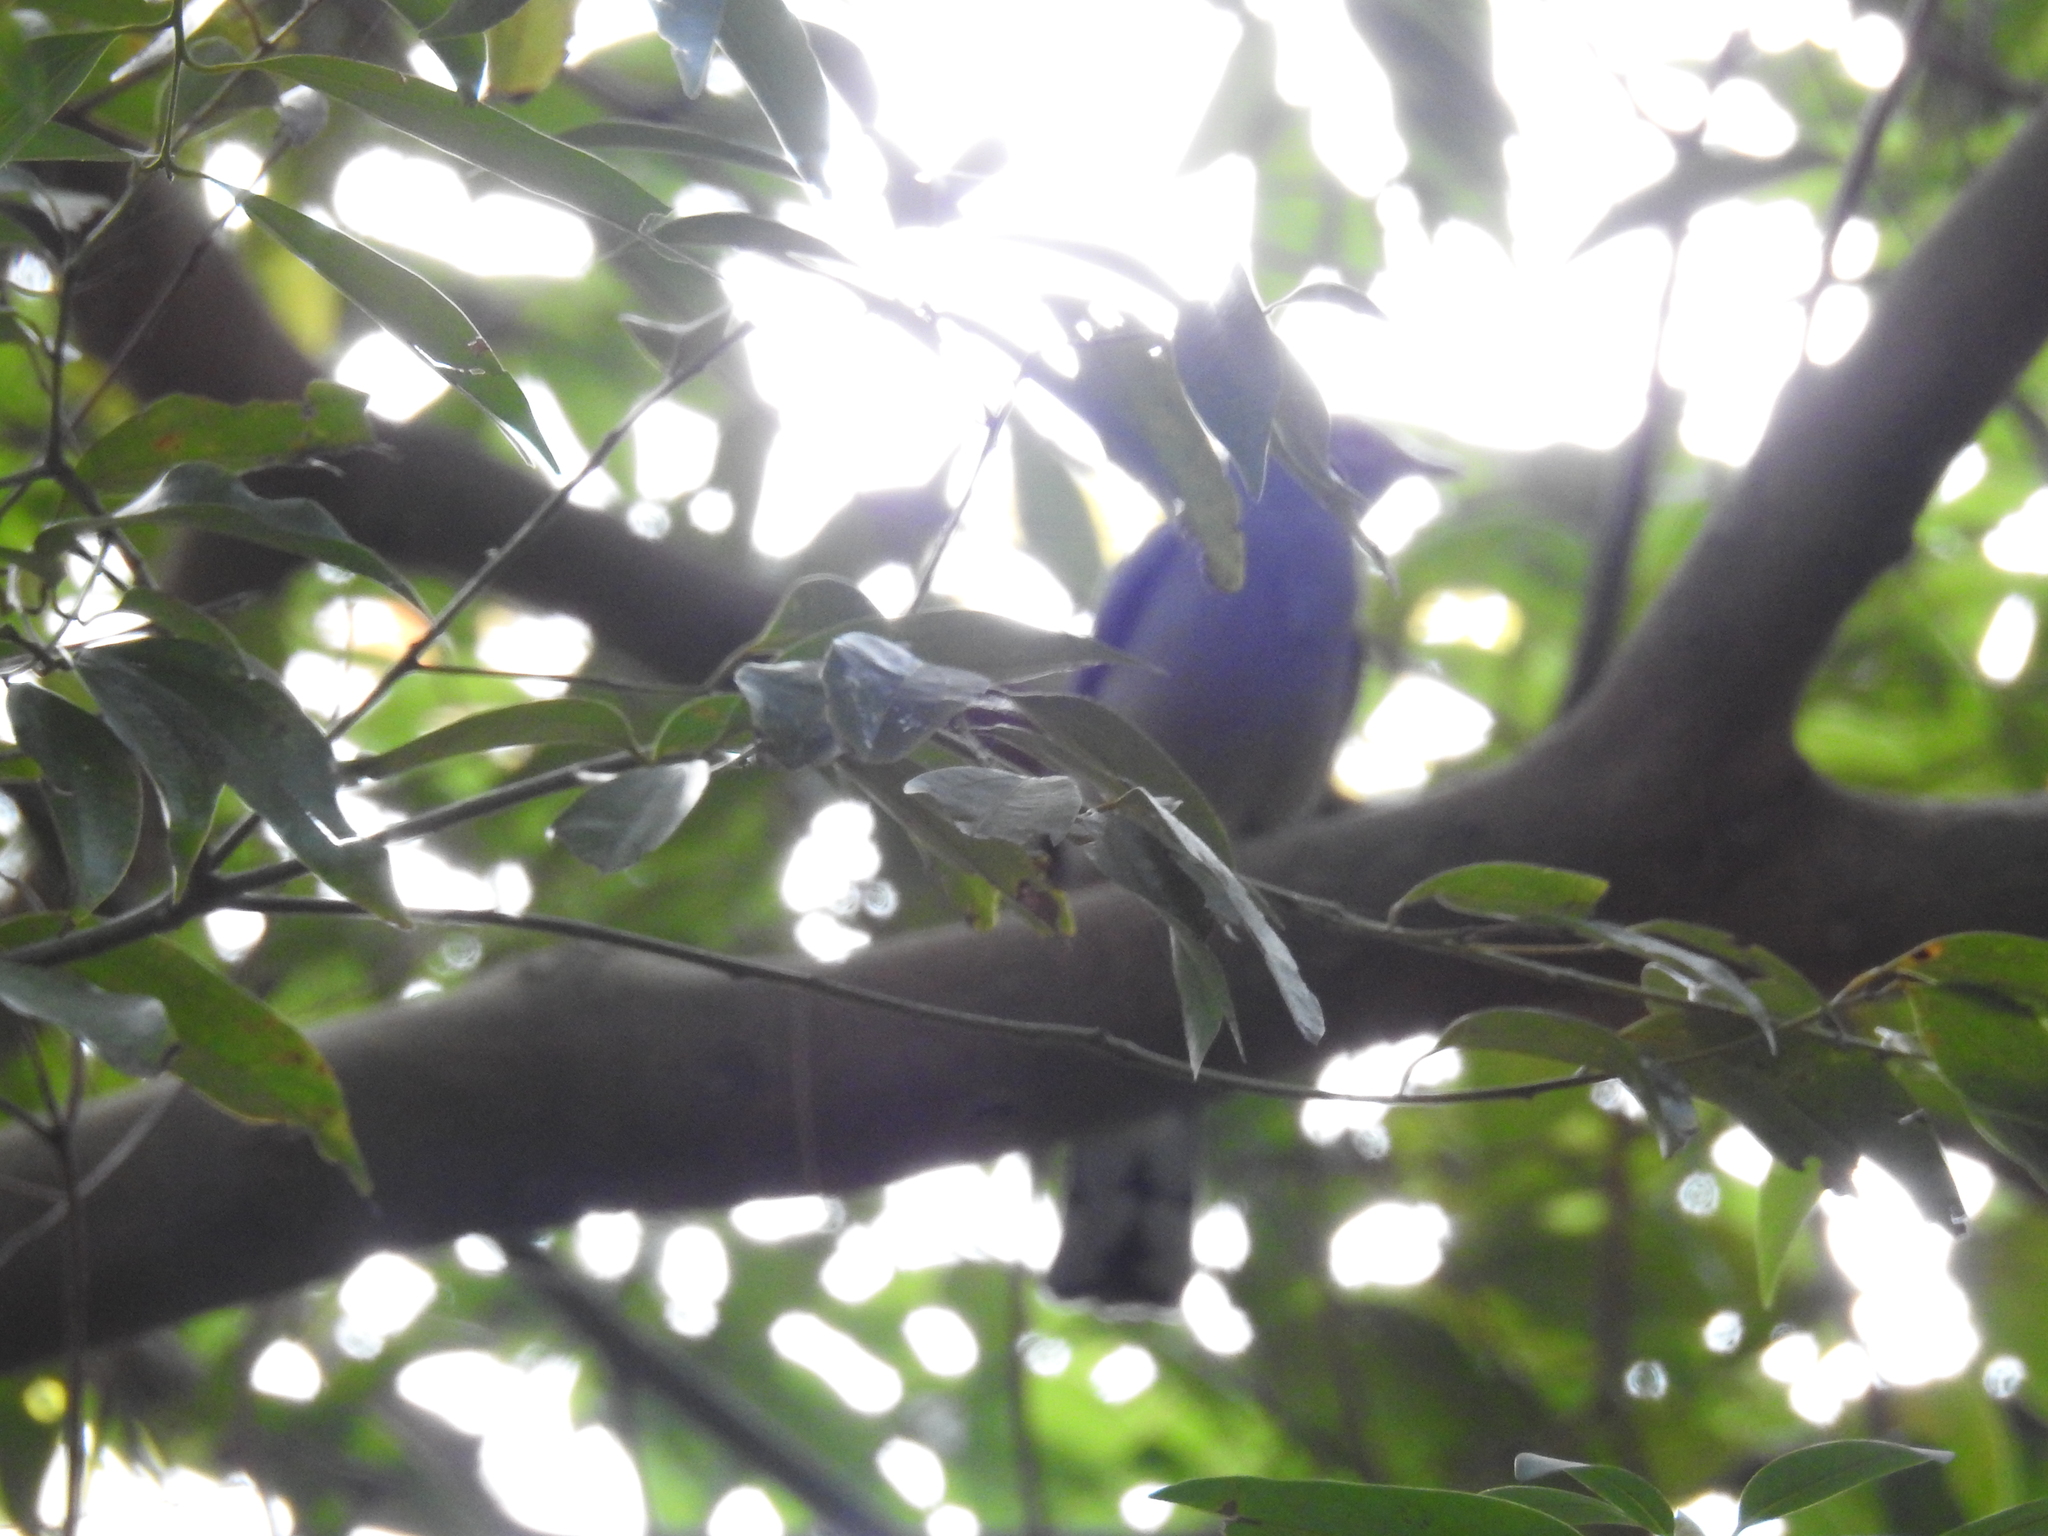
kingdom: Animalia
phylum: Chordata
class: Aves
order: Passeriformes
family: Campephagidae
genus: Coracina
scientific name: Coracina melaschistos
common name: Black-winged cuckooshrike
